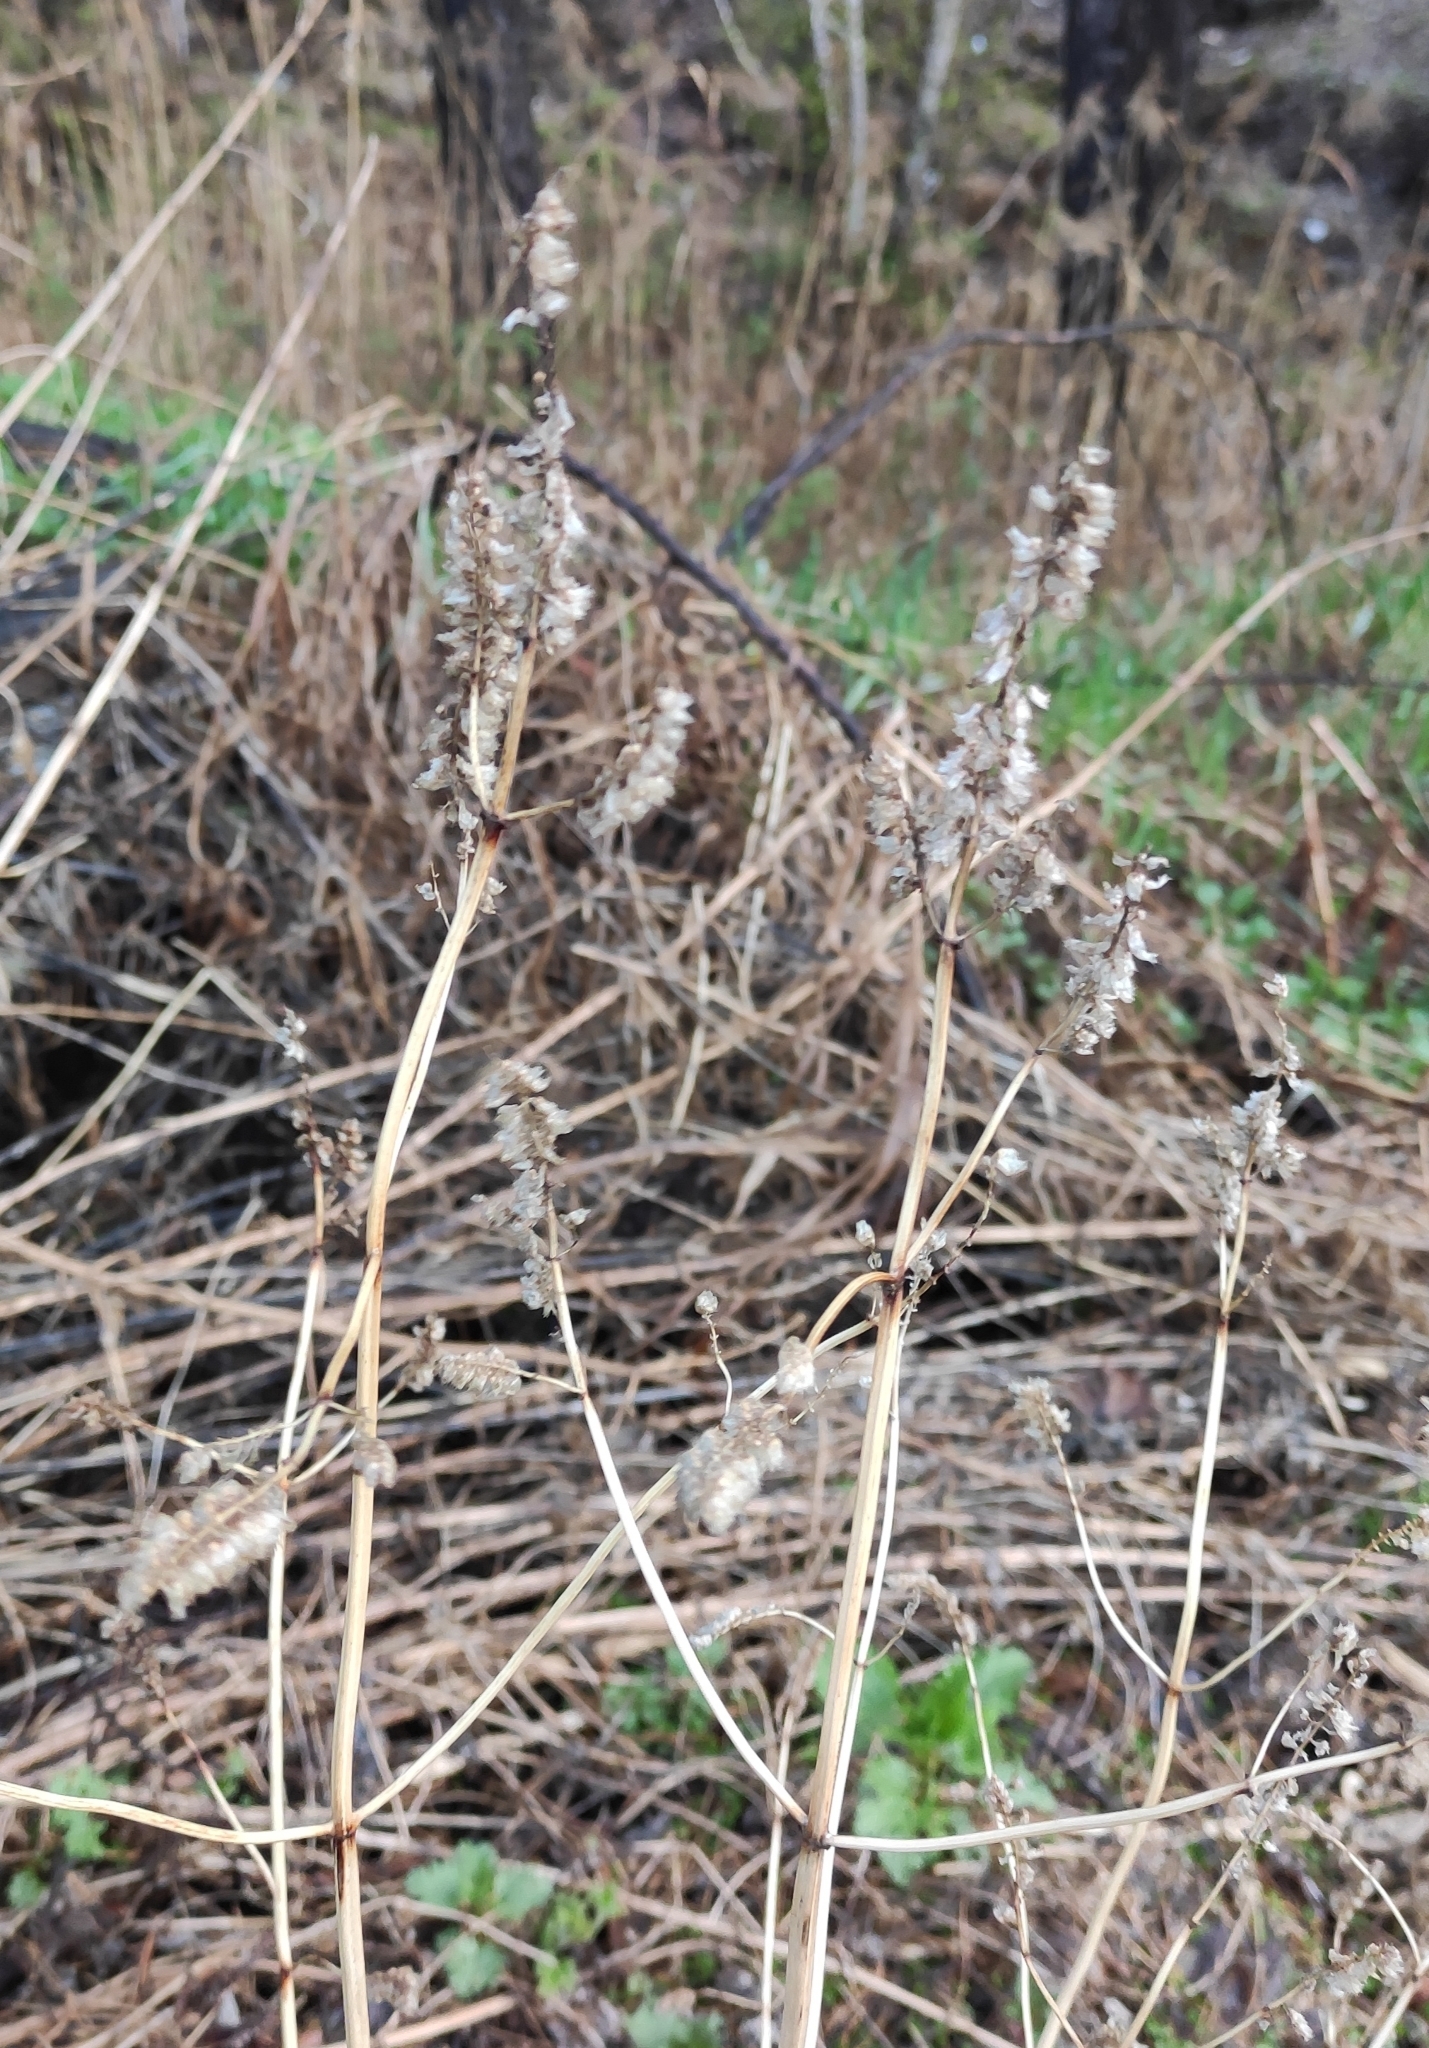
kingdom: Plantae
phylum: Tracheophyta
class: Magnoliopsida
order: Lamiales
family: Lamiaceae
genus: Elsholtzia
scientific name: Elsholtzia ciliata
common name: Ciliate elsholtzia
